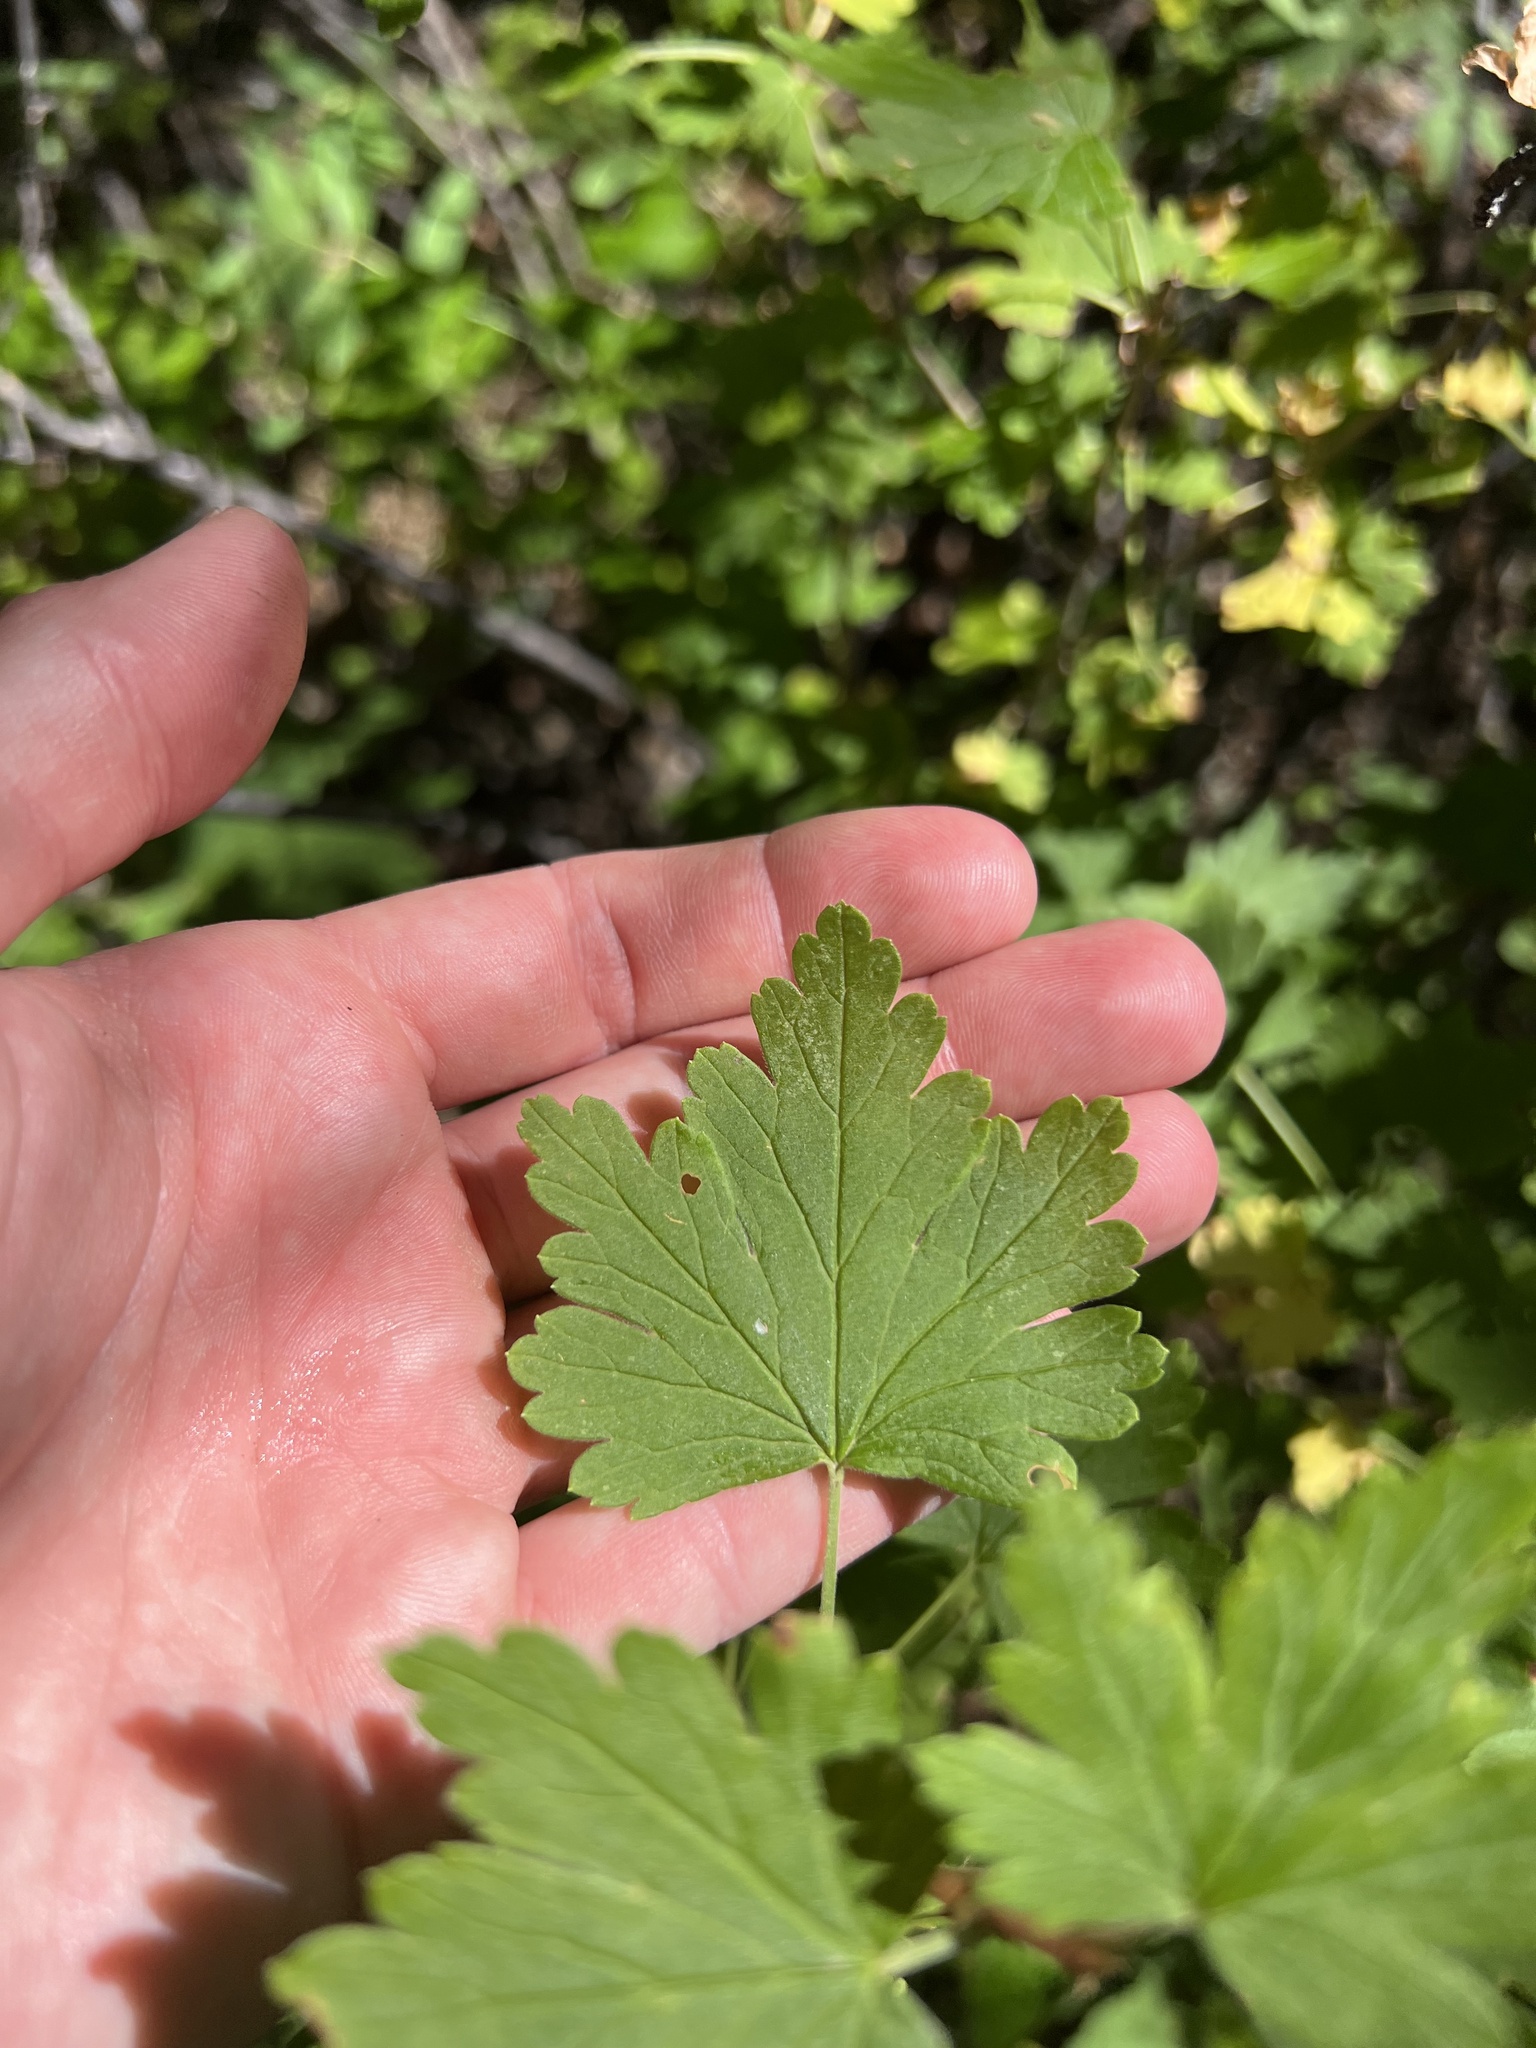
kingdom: Plantae
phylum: Tracheophyta
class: Magnoliopsida
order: Saxifragales
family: Grossulariaceae
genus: Ribes
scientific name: Ribes inerme
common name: White-stem gooseberry
